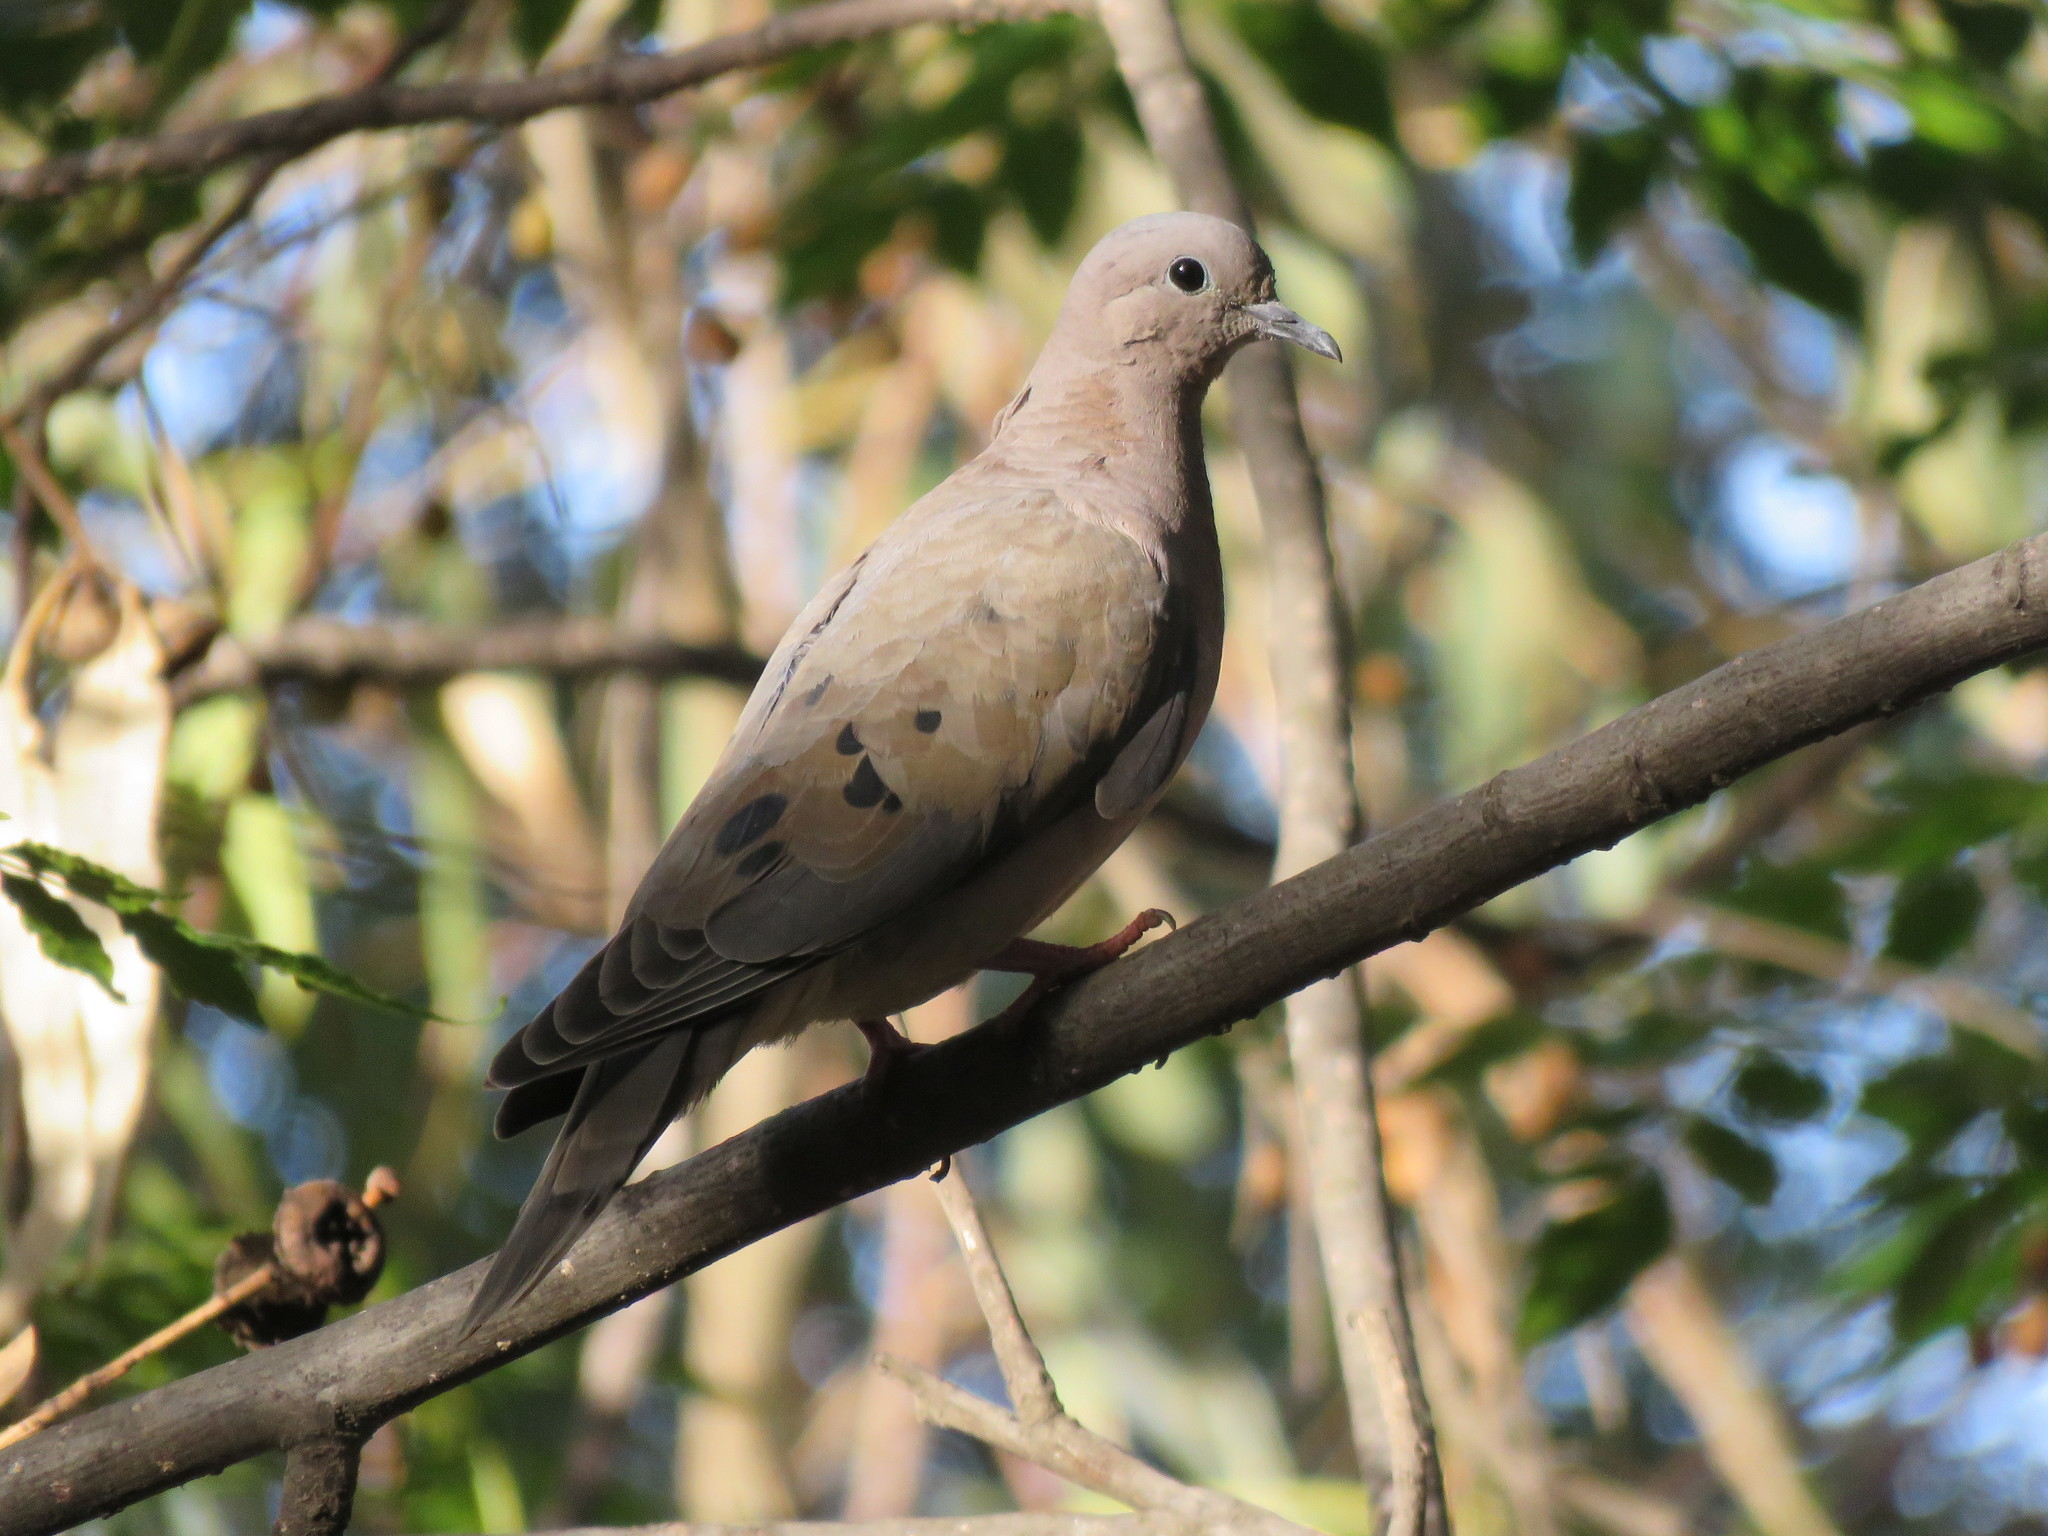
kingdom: Animalia
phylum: Chordata
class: Aves
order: Columbiformes
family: Columbidae
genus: Zenaida
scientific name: Zenaida auriculata
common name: Eared dove
